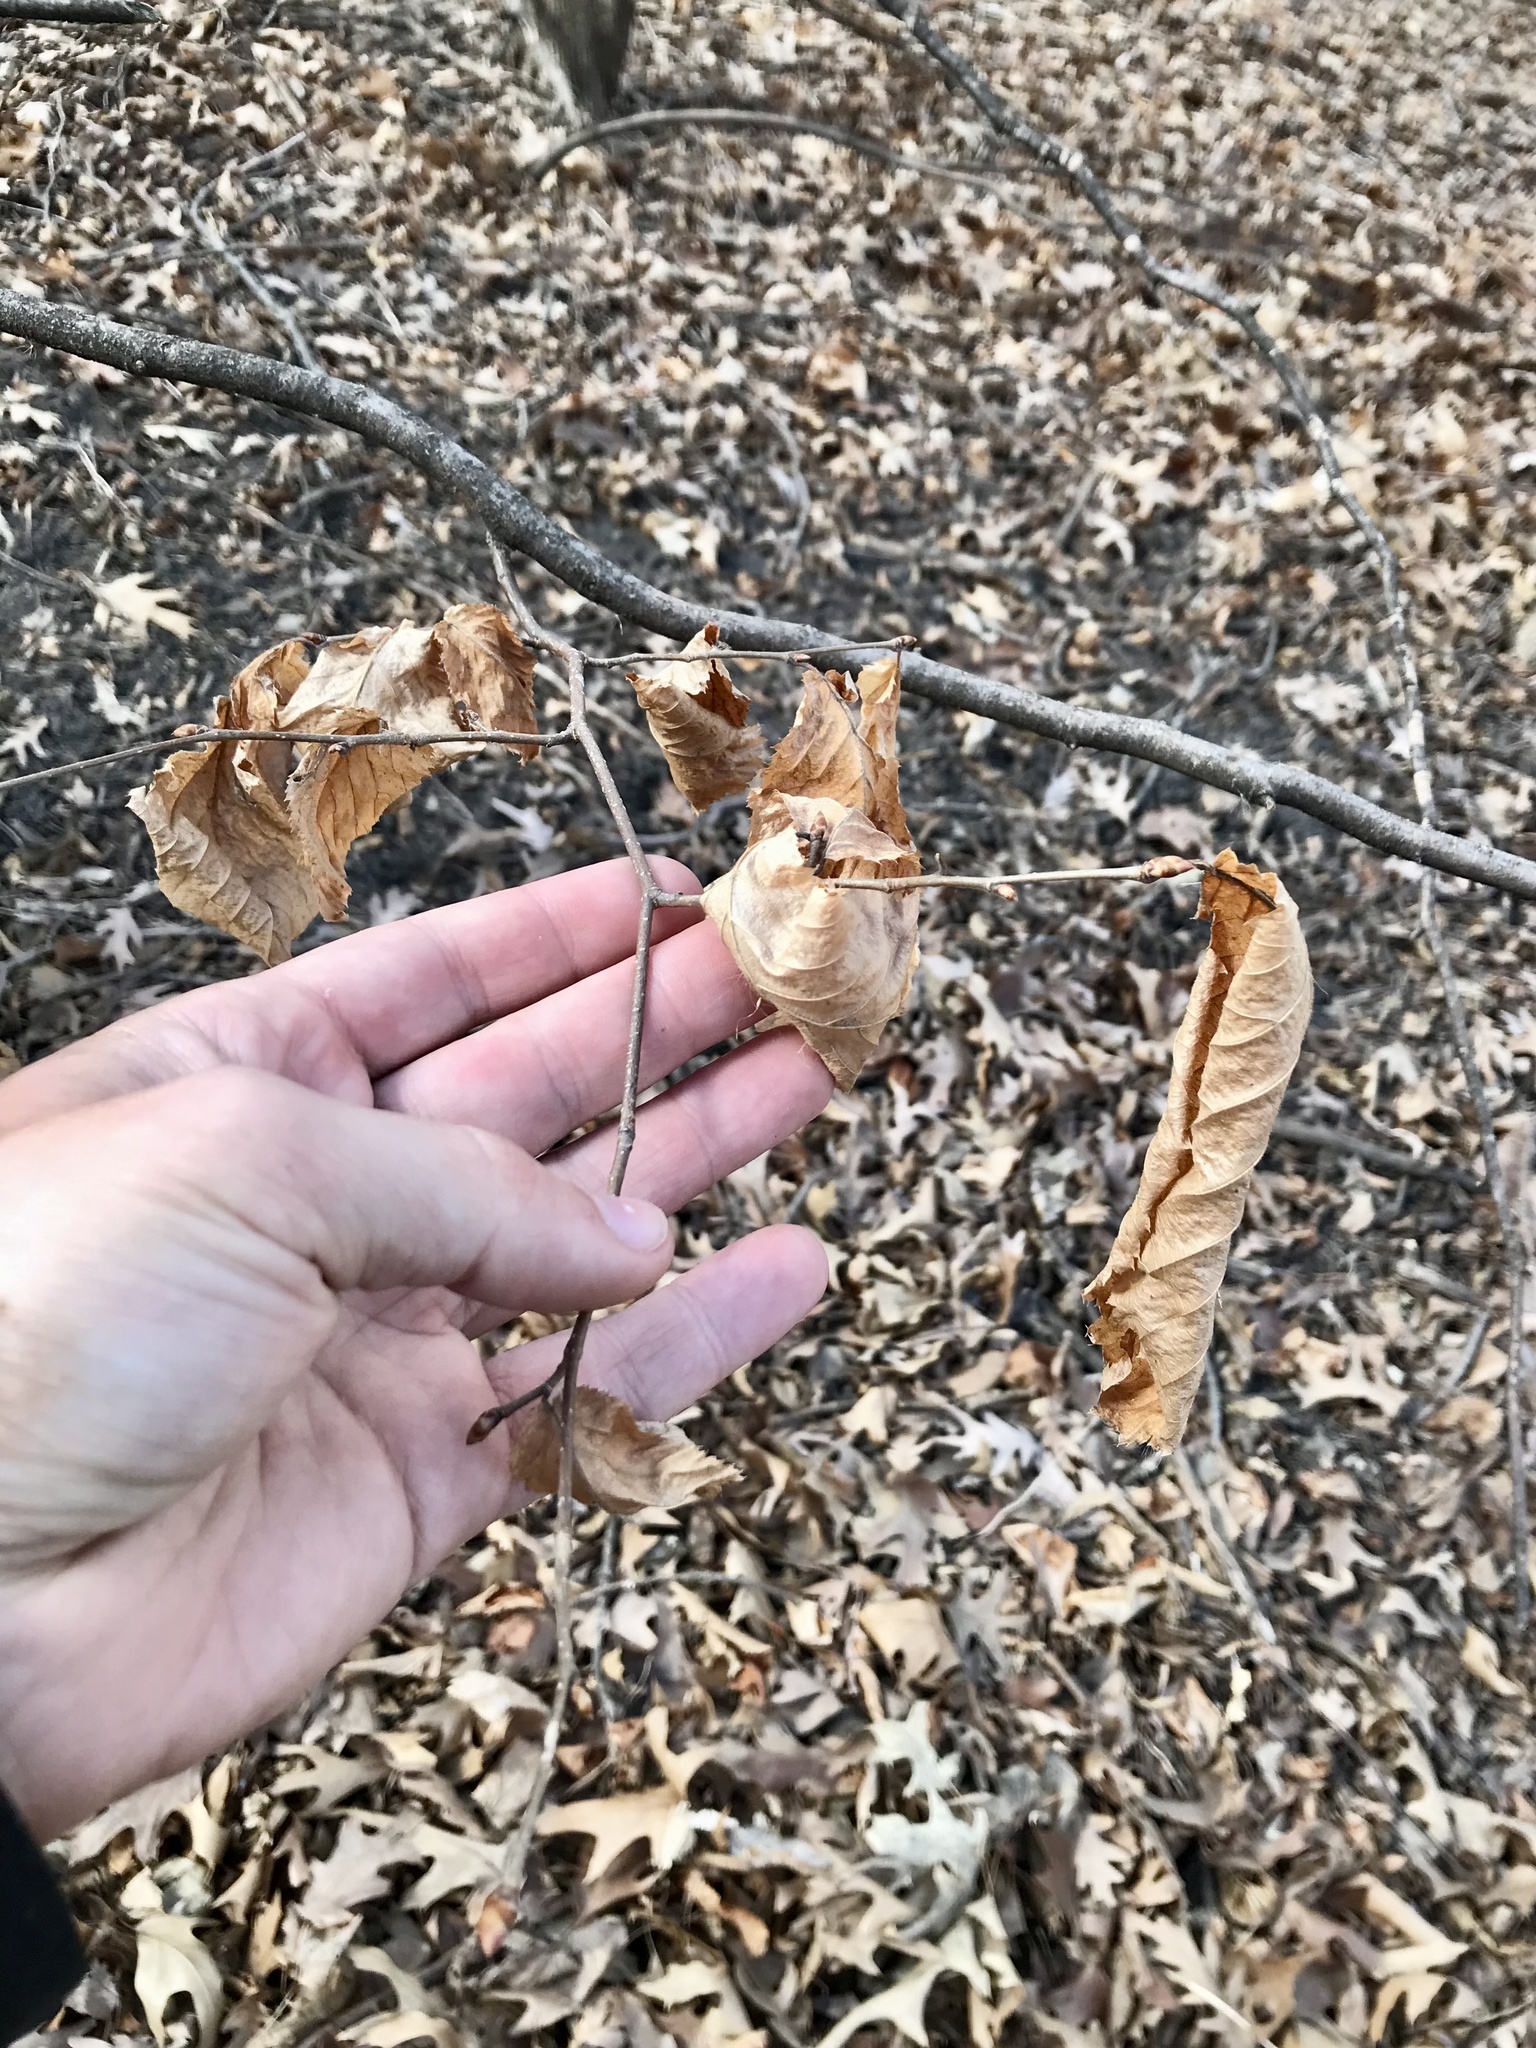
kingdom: Plantae
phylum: Tracheophyta
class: Magnoliopsida
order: Fagales
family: Betulaceae
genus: Ostrya
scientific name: Ostrya virginiana
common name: Ironwood
